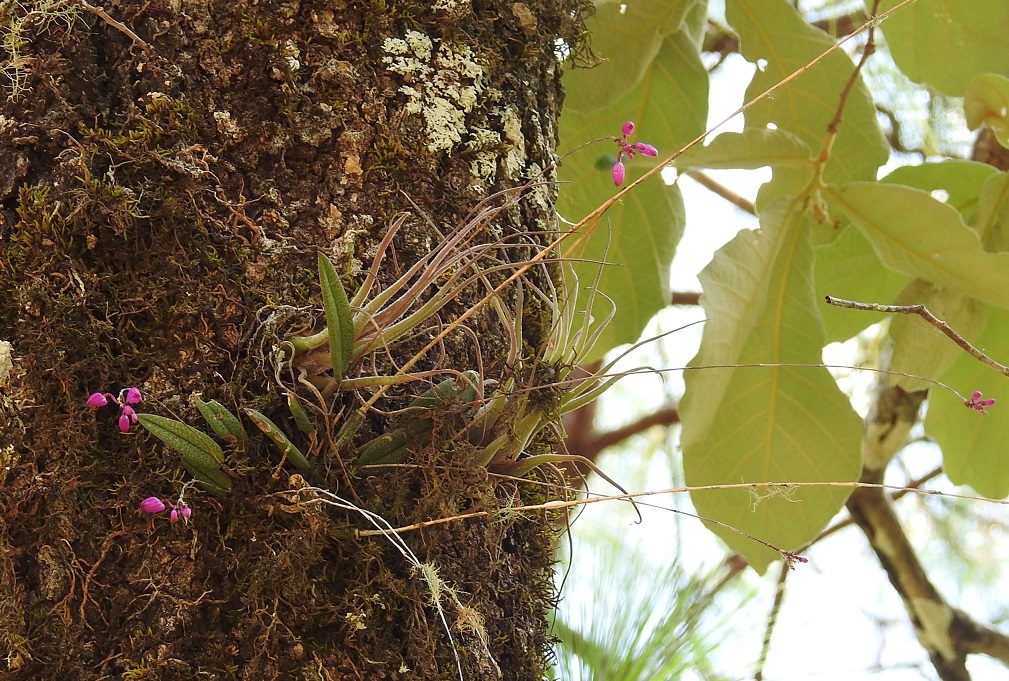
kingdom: Plantae
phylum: Tracheophyta
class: Liliopsida
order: Asparagales
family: Orchidaceae
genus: Domingoa
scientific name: Domingoa purpurea
